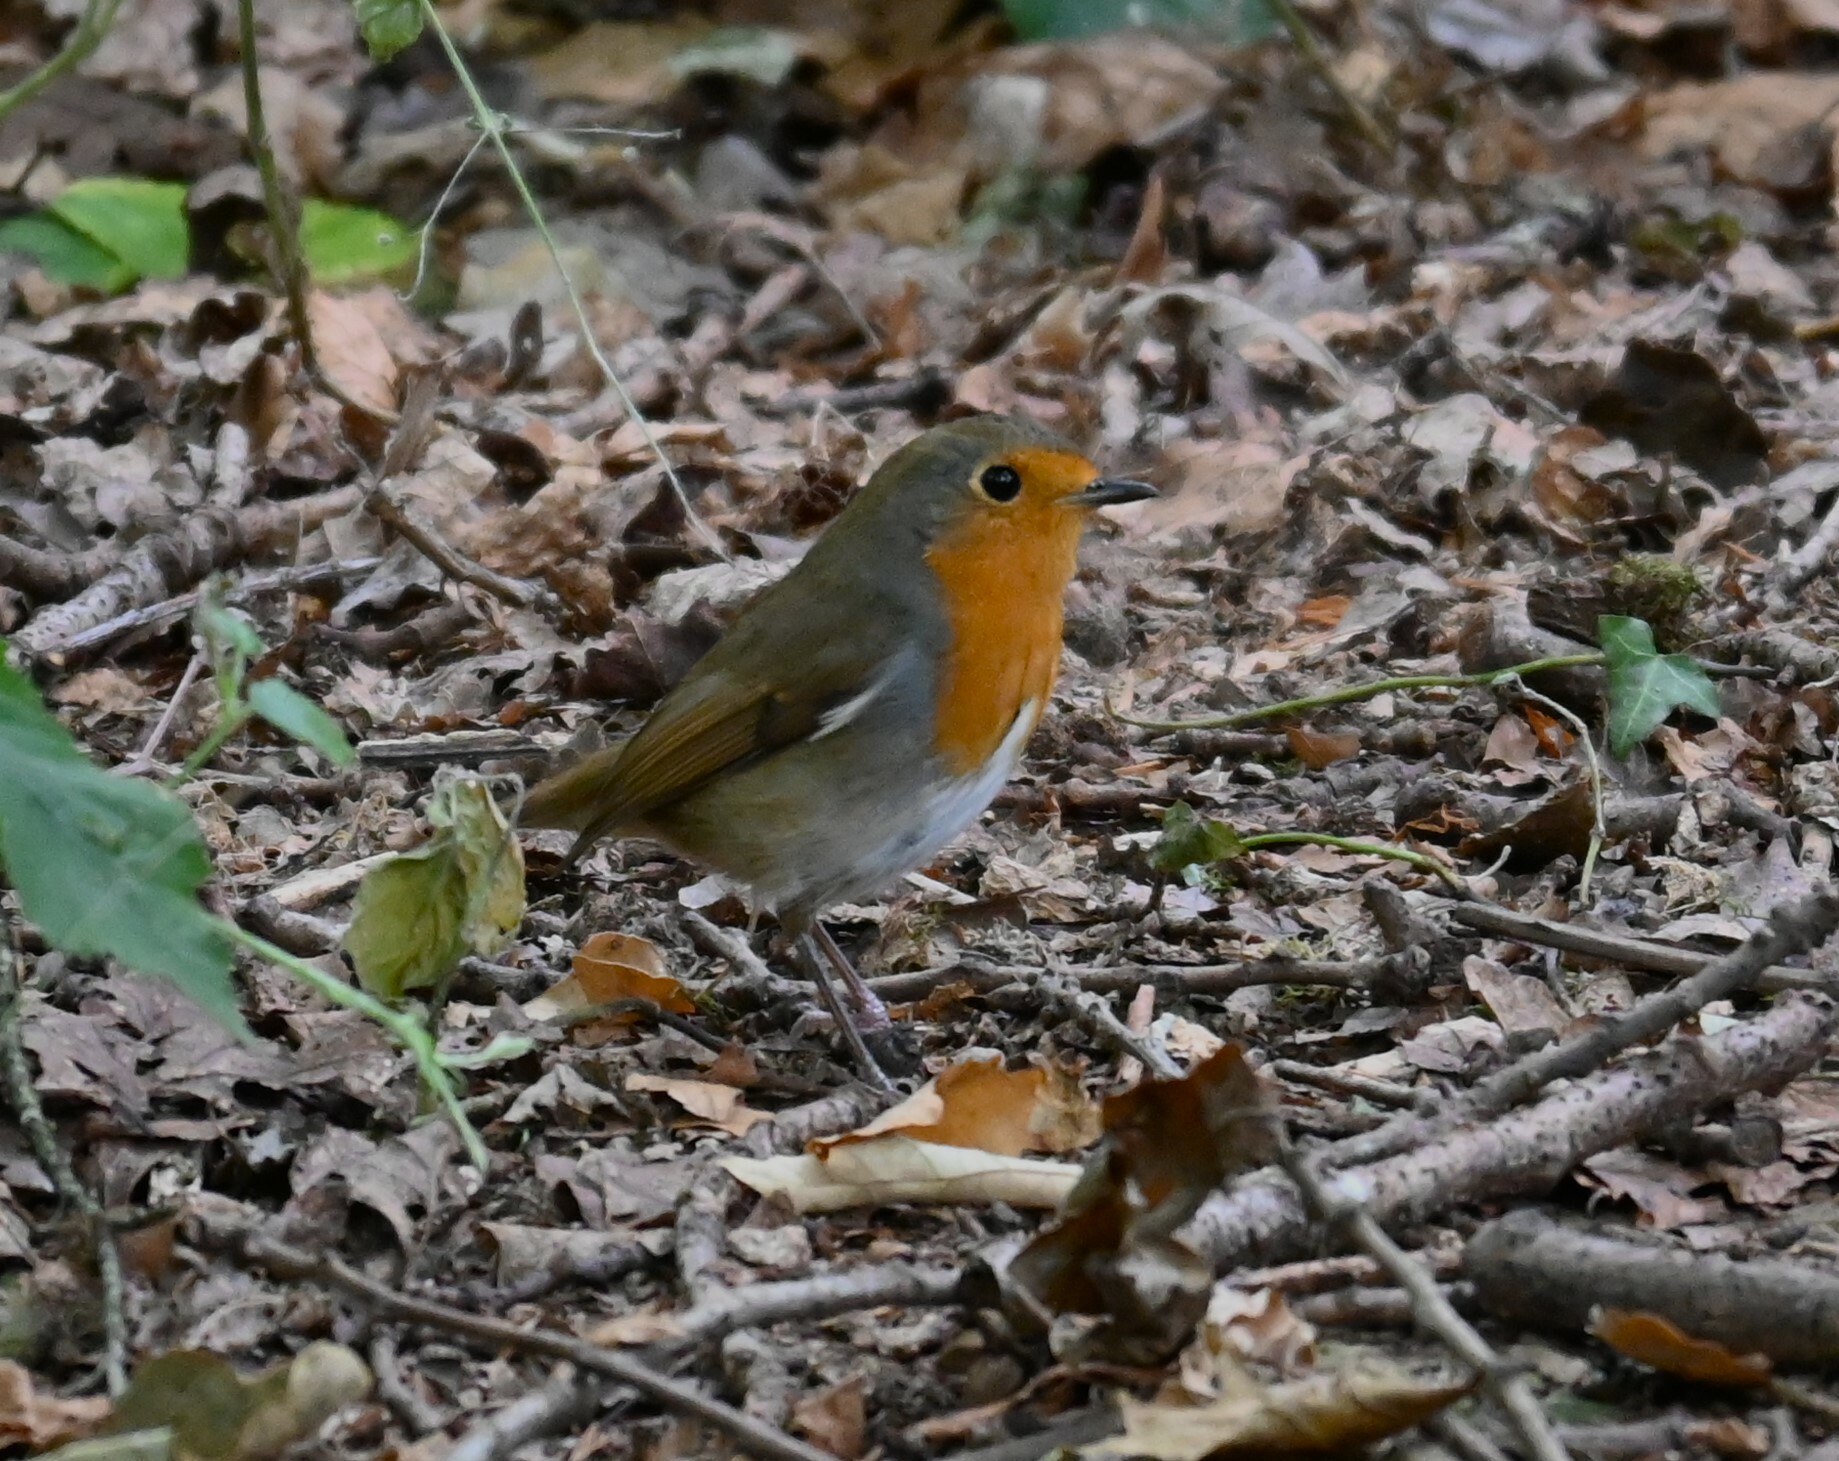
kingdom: Animalia
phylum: Chordata
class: Aves
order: Passeriformes
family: Muscicapidae
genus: Erithacus
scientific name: Erithacus rubecula
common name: European robin
